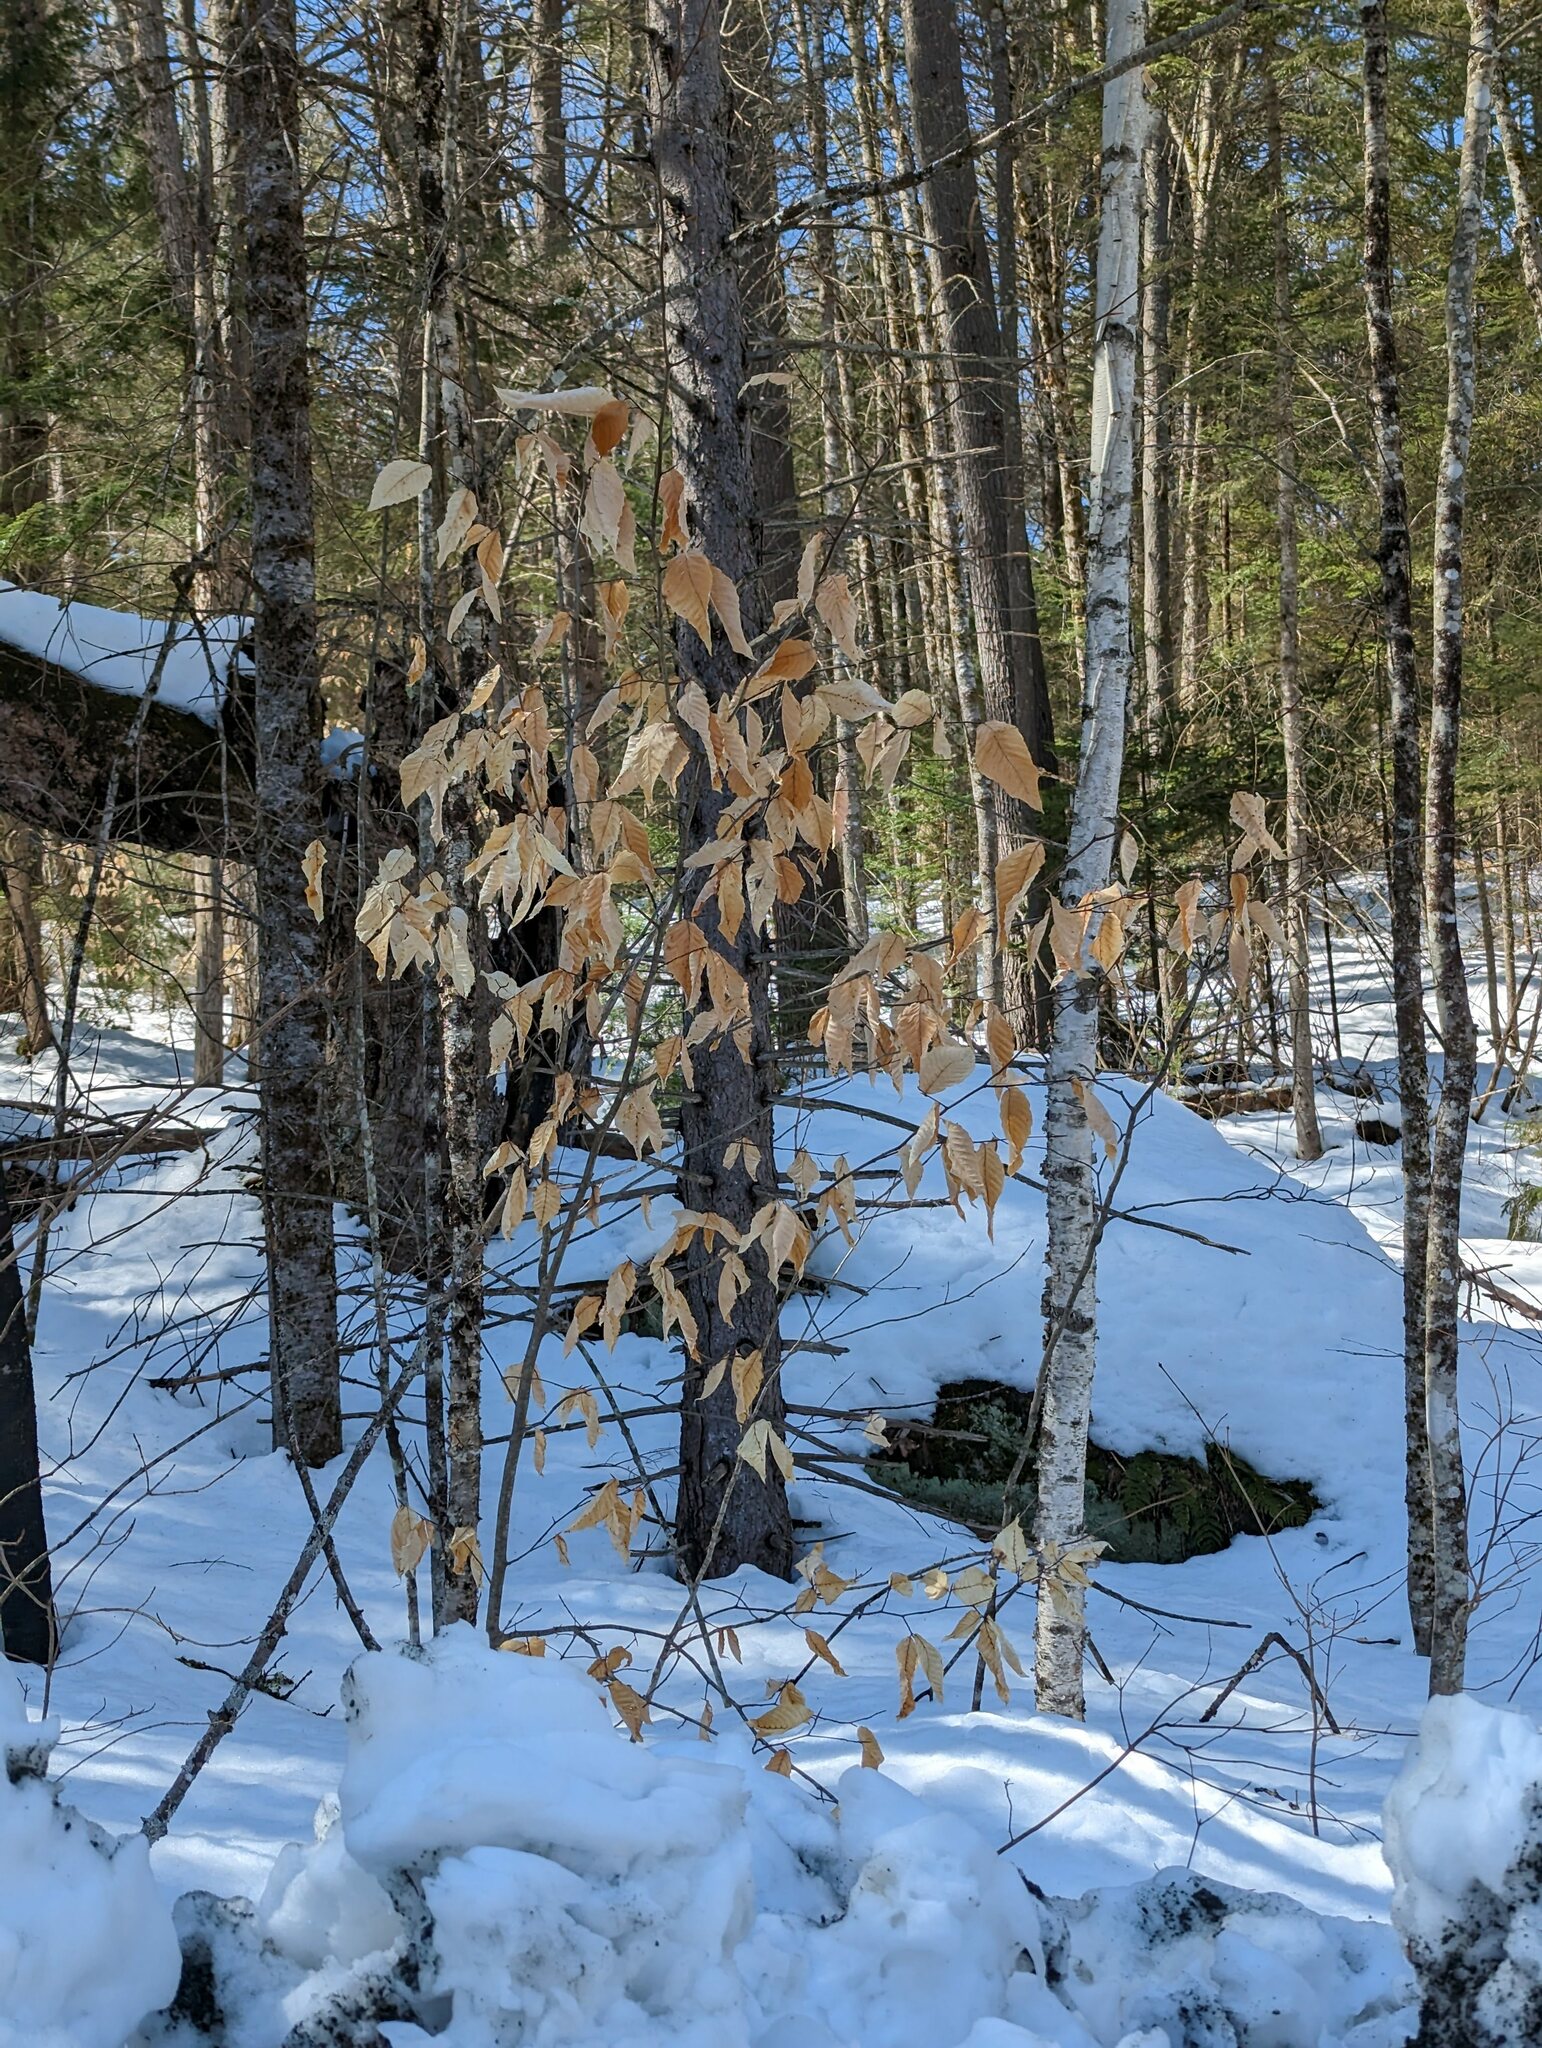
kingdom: Plantae
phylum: Tracheophyta
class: Magnoliopsida
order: Fagales
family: Fagaceae
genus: Fagus
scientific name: Fagus grandifolia
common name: American beech
